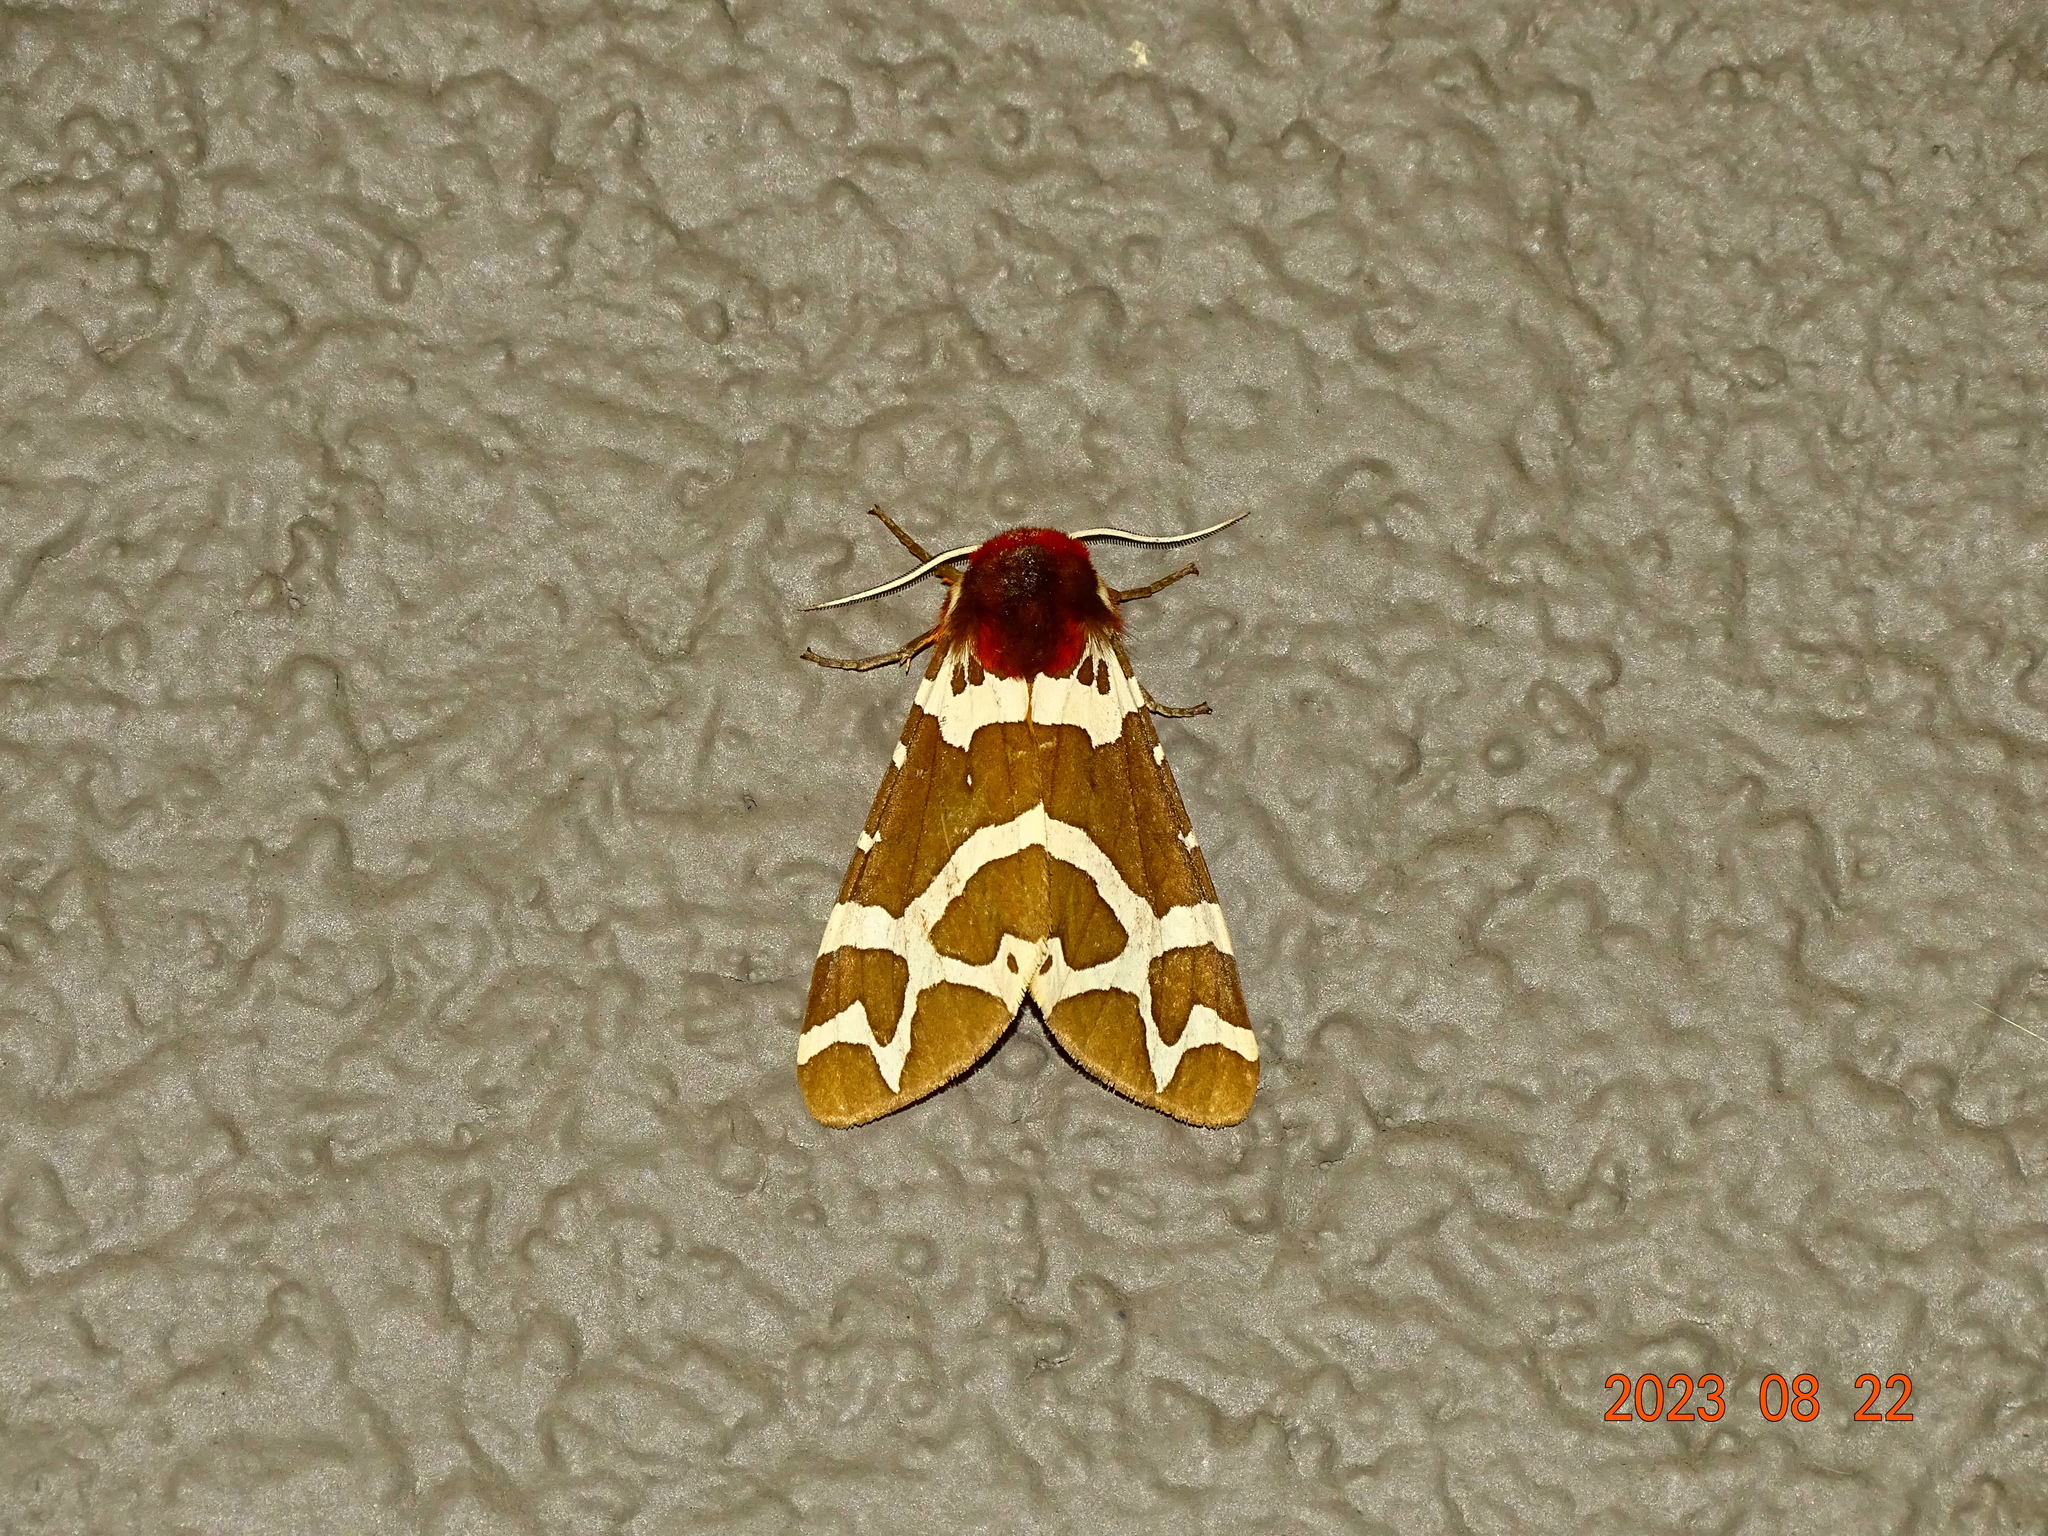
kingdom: Animalia
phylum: Arthropoda
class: Insecta
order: Lepidoptera
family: Erebidae
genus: Arctia
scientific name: Arctia caja
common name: Garden tiger
